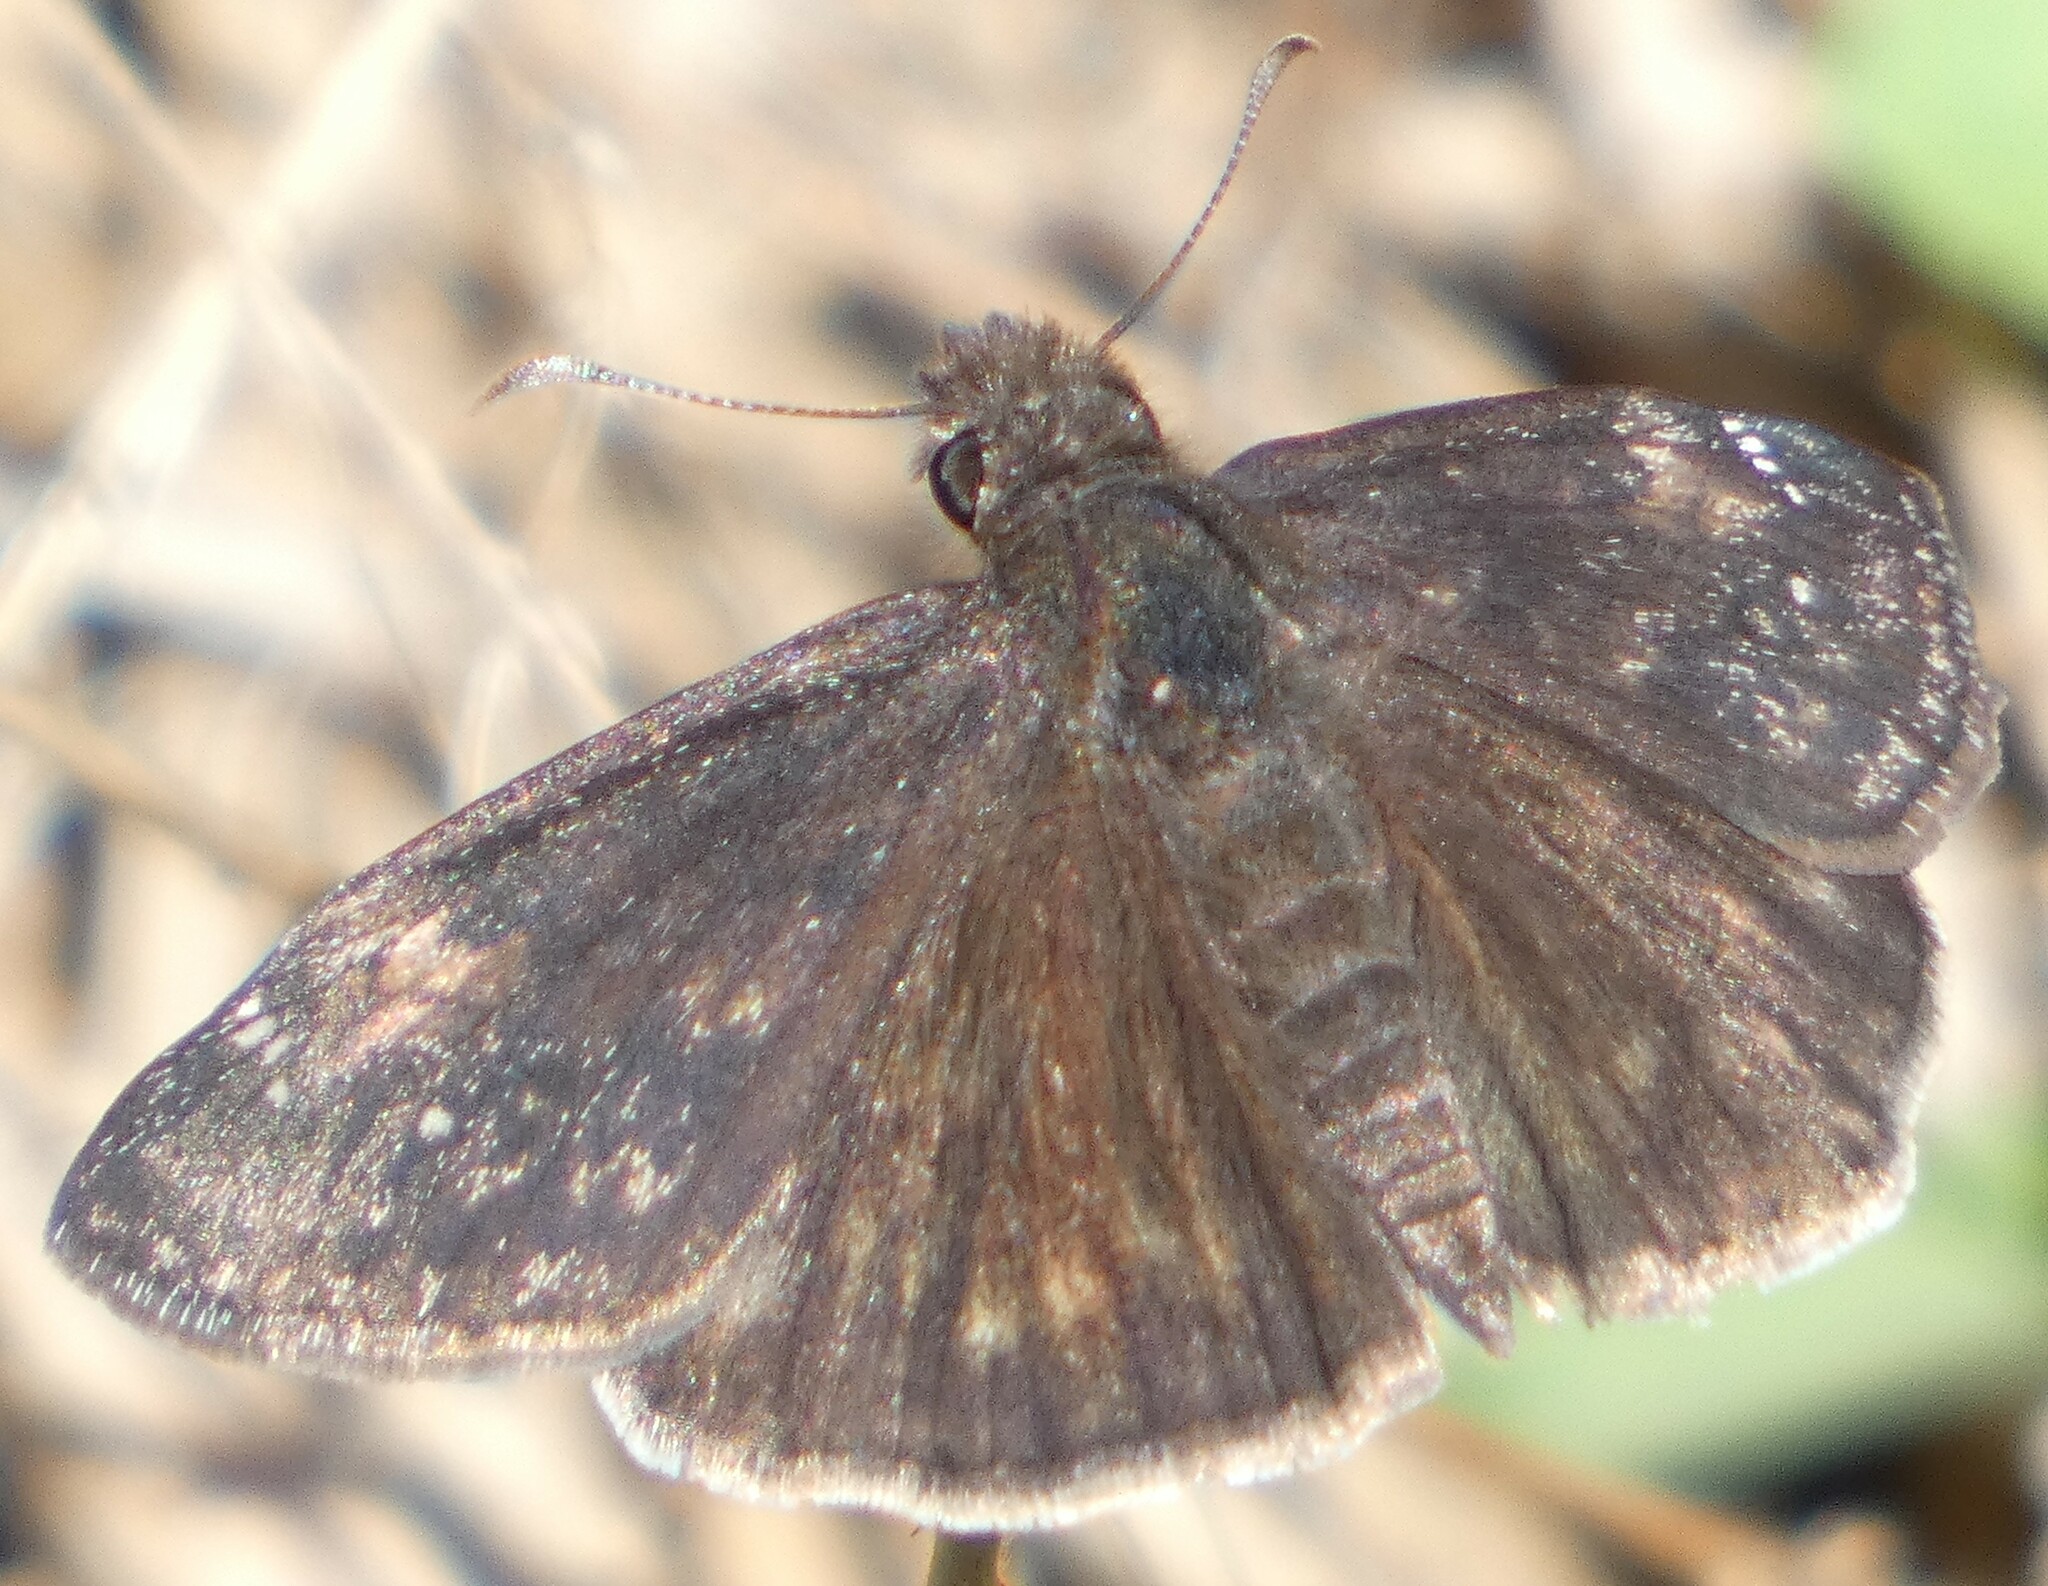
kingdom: Animalia
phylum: Arthropoda
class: Insecta
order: Lepidoptera
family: Hesperiidae
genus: Erynnis
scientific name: Erynnis zarucco
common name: Zarucco duskywing
